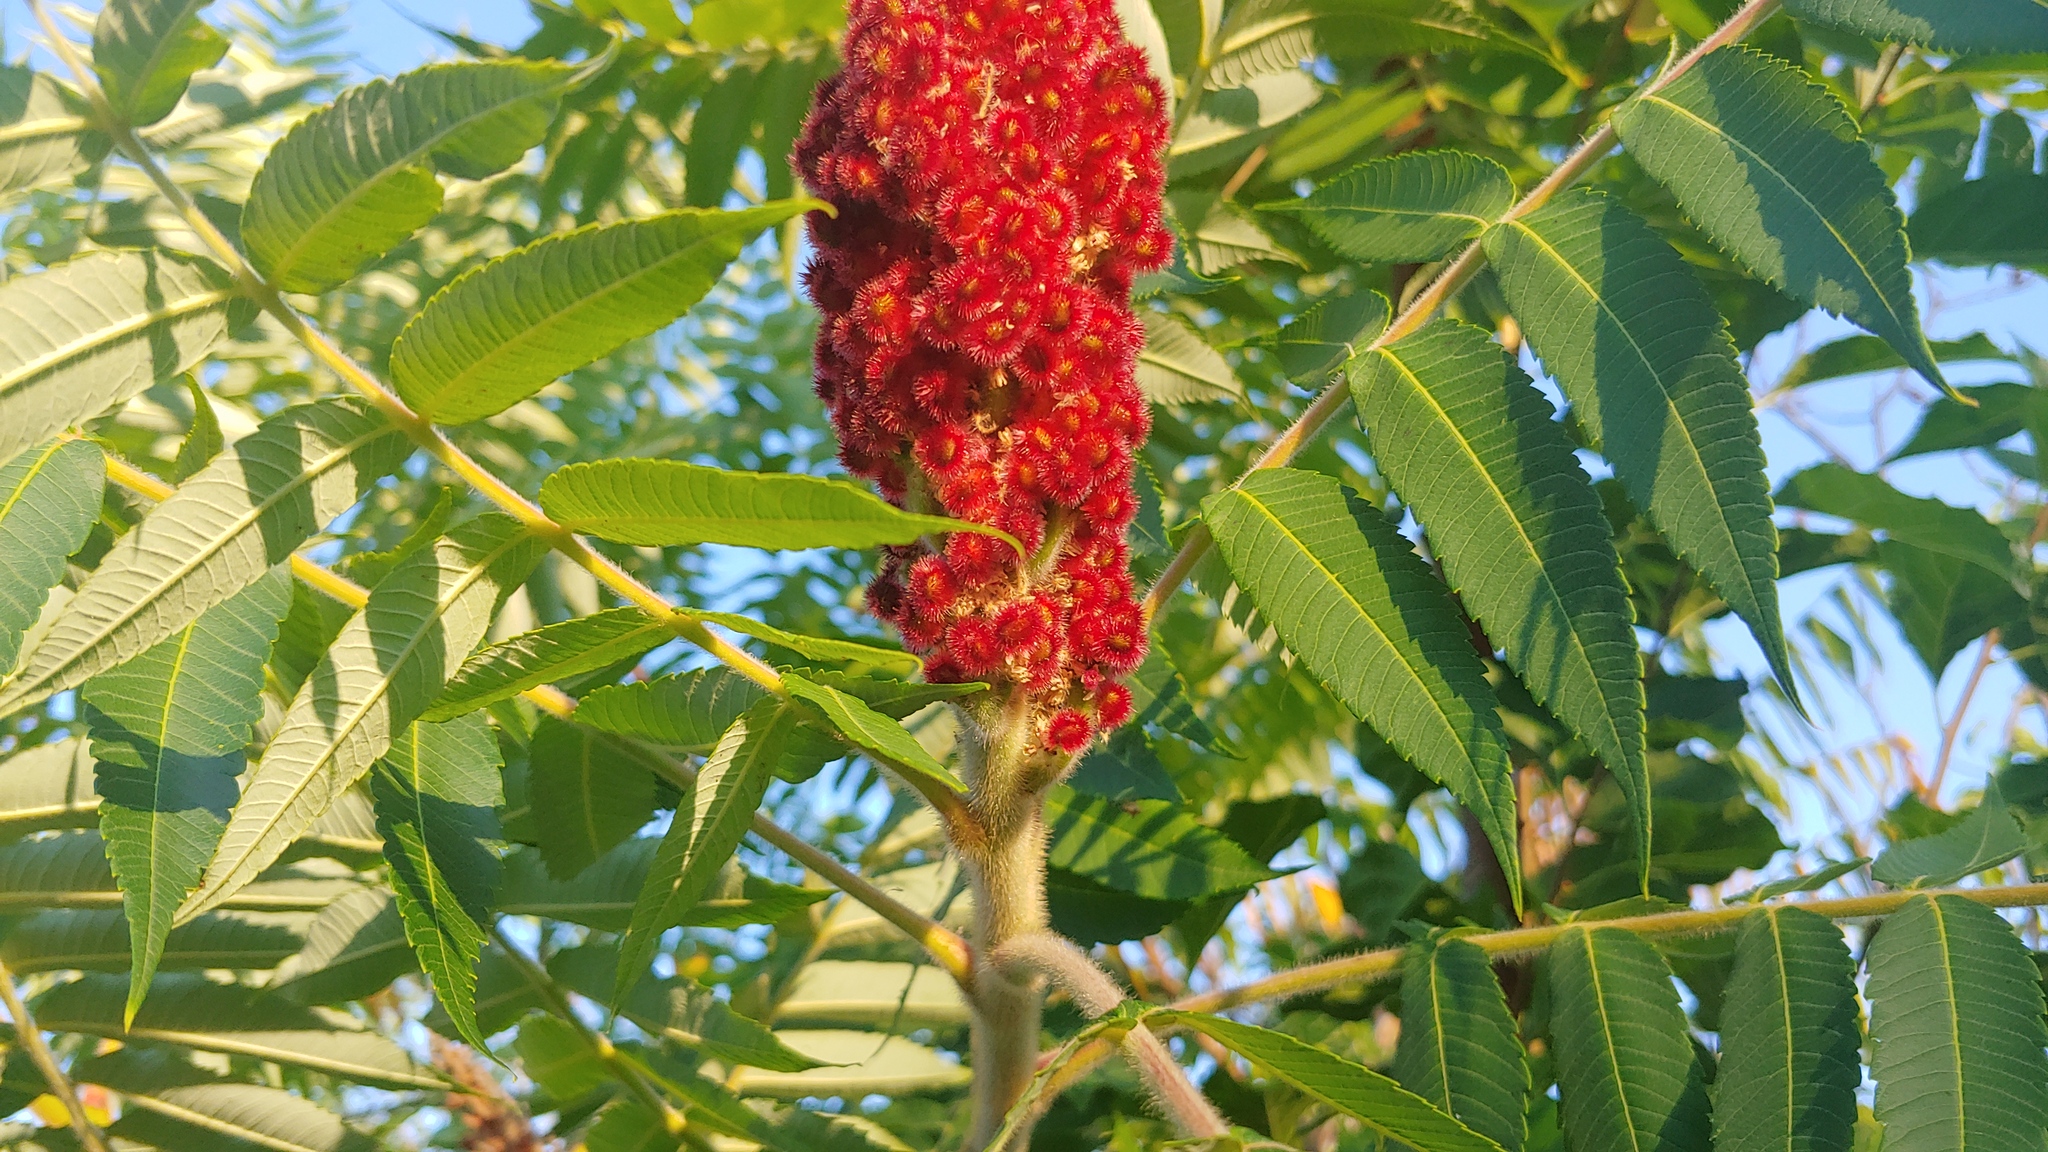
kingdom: Plantae
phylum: Tracheophyta
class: Magnoliopsida
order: Sapindales
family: Anacardiaceae
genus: Rhus
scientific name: Rhus typhina
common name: Staghorn sumac
